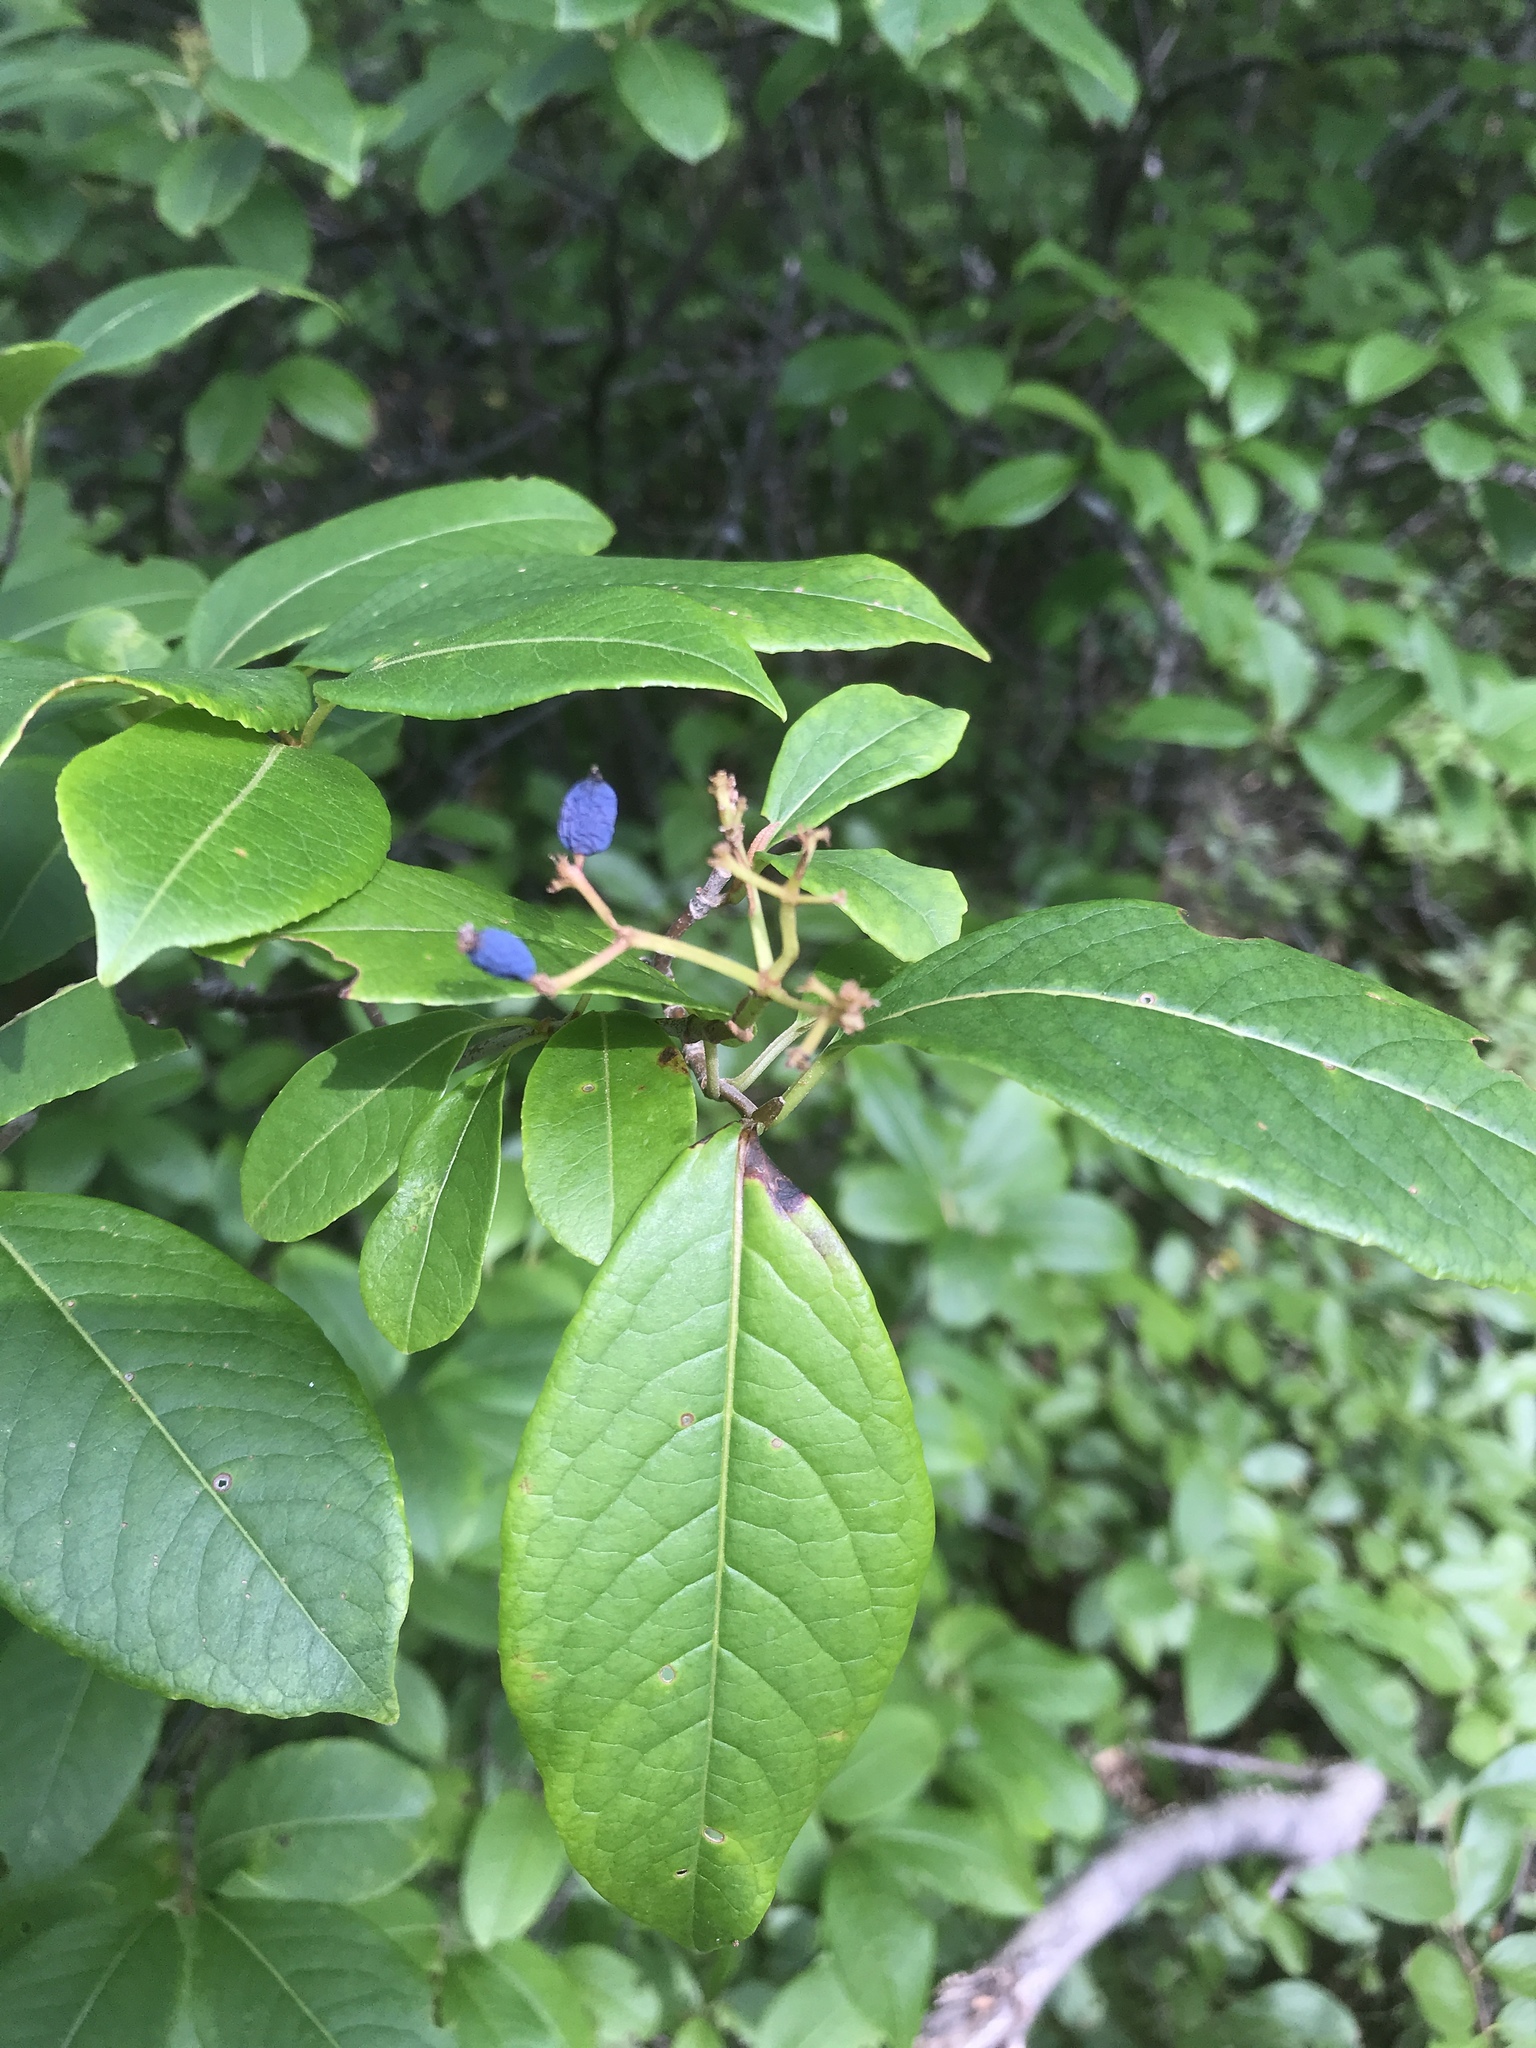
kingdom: Plantae
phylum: Tracheophyta
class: Magnoliopsida
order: Dipsacales
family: Viburnaceae
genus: Viburnum
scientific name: Viburnum cassinoides
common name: Swamp haw
